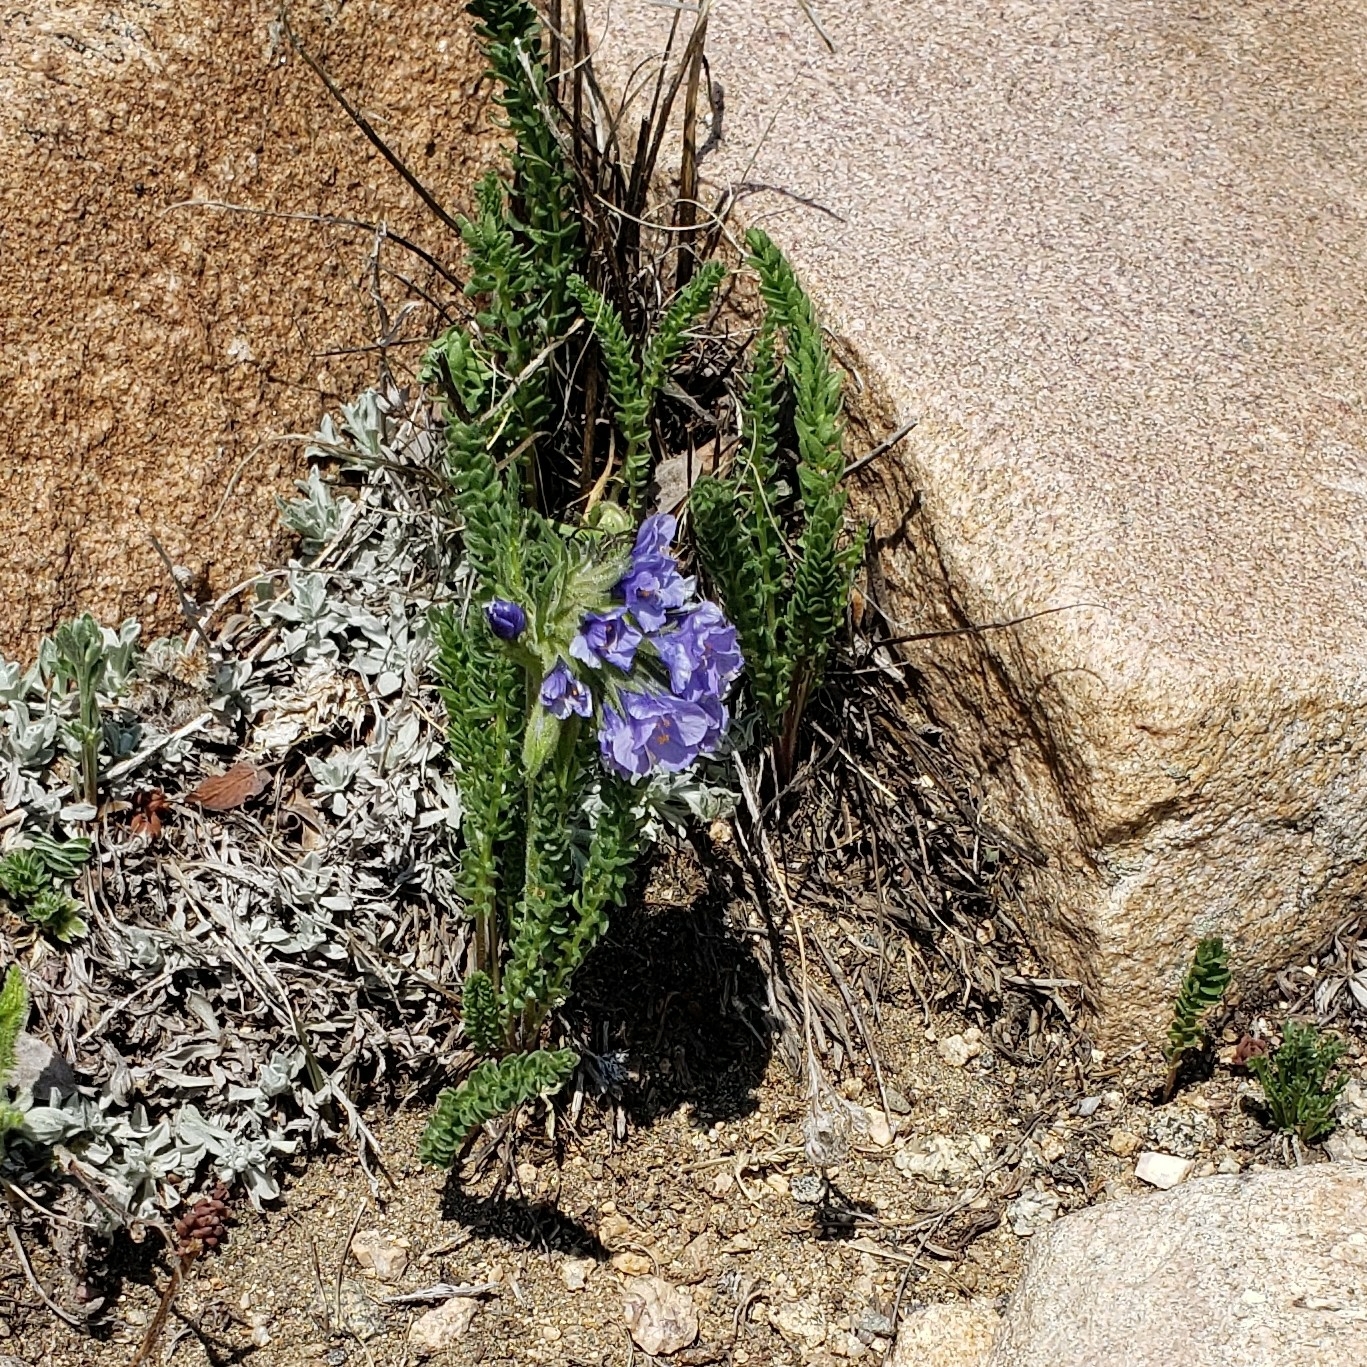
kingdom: Plantae
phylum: Tracheophyta
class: Magnoliopsida
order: Ericales
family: Polemoniaceae
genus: Polemonium
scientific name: Polemonium viscosum
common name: Skunk jacob's-ladder
